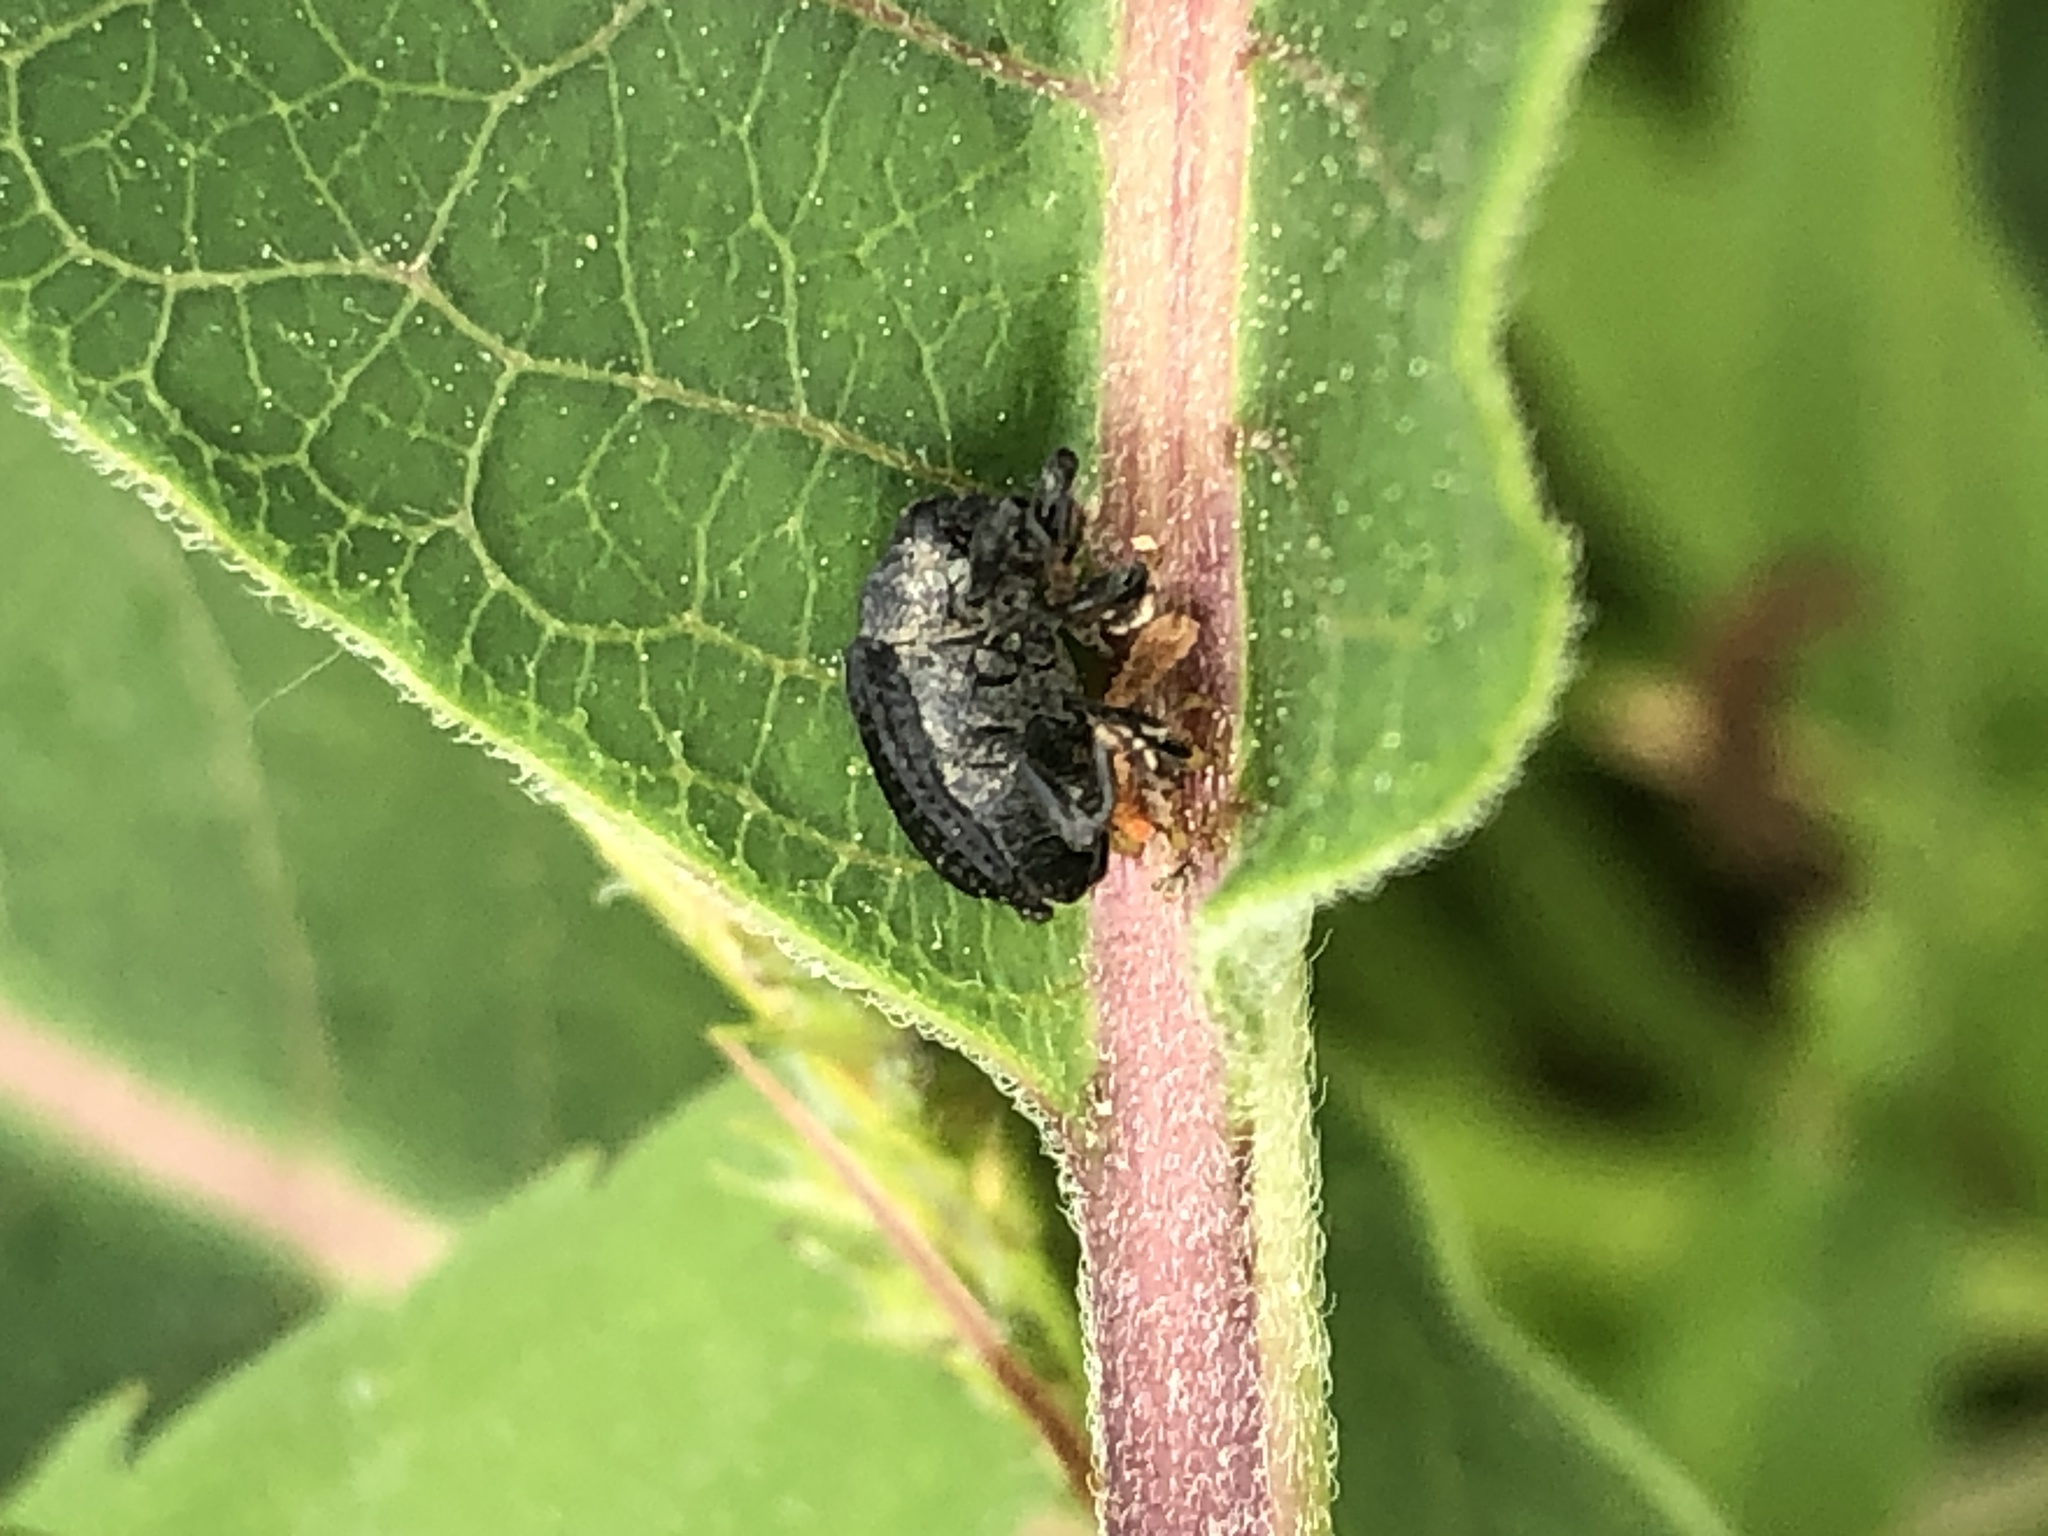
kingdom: Animalia
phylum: Arthropoda
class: Insecta
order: Coleoptera
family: Curculionidae
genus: Rhyssomatus
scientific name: Rhyssomatus lineaticollis
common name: Milkweed stem weevil
